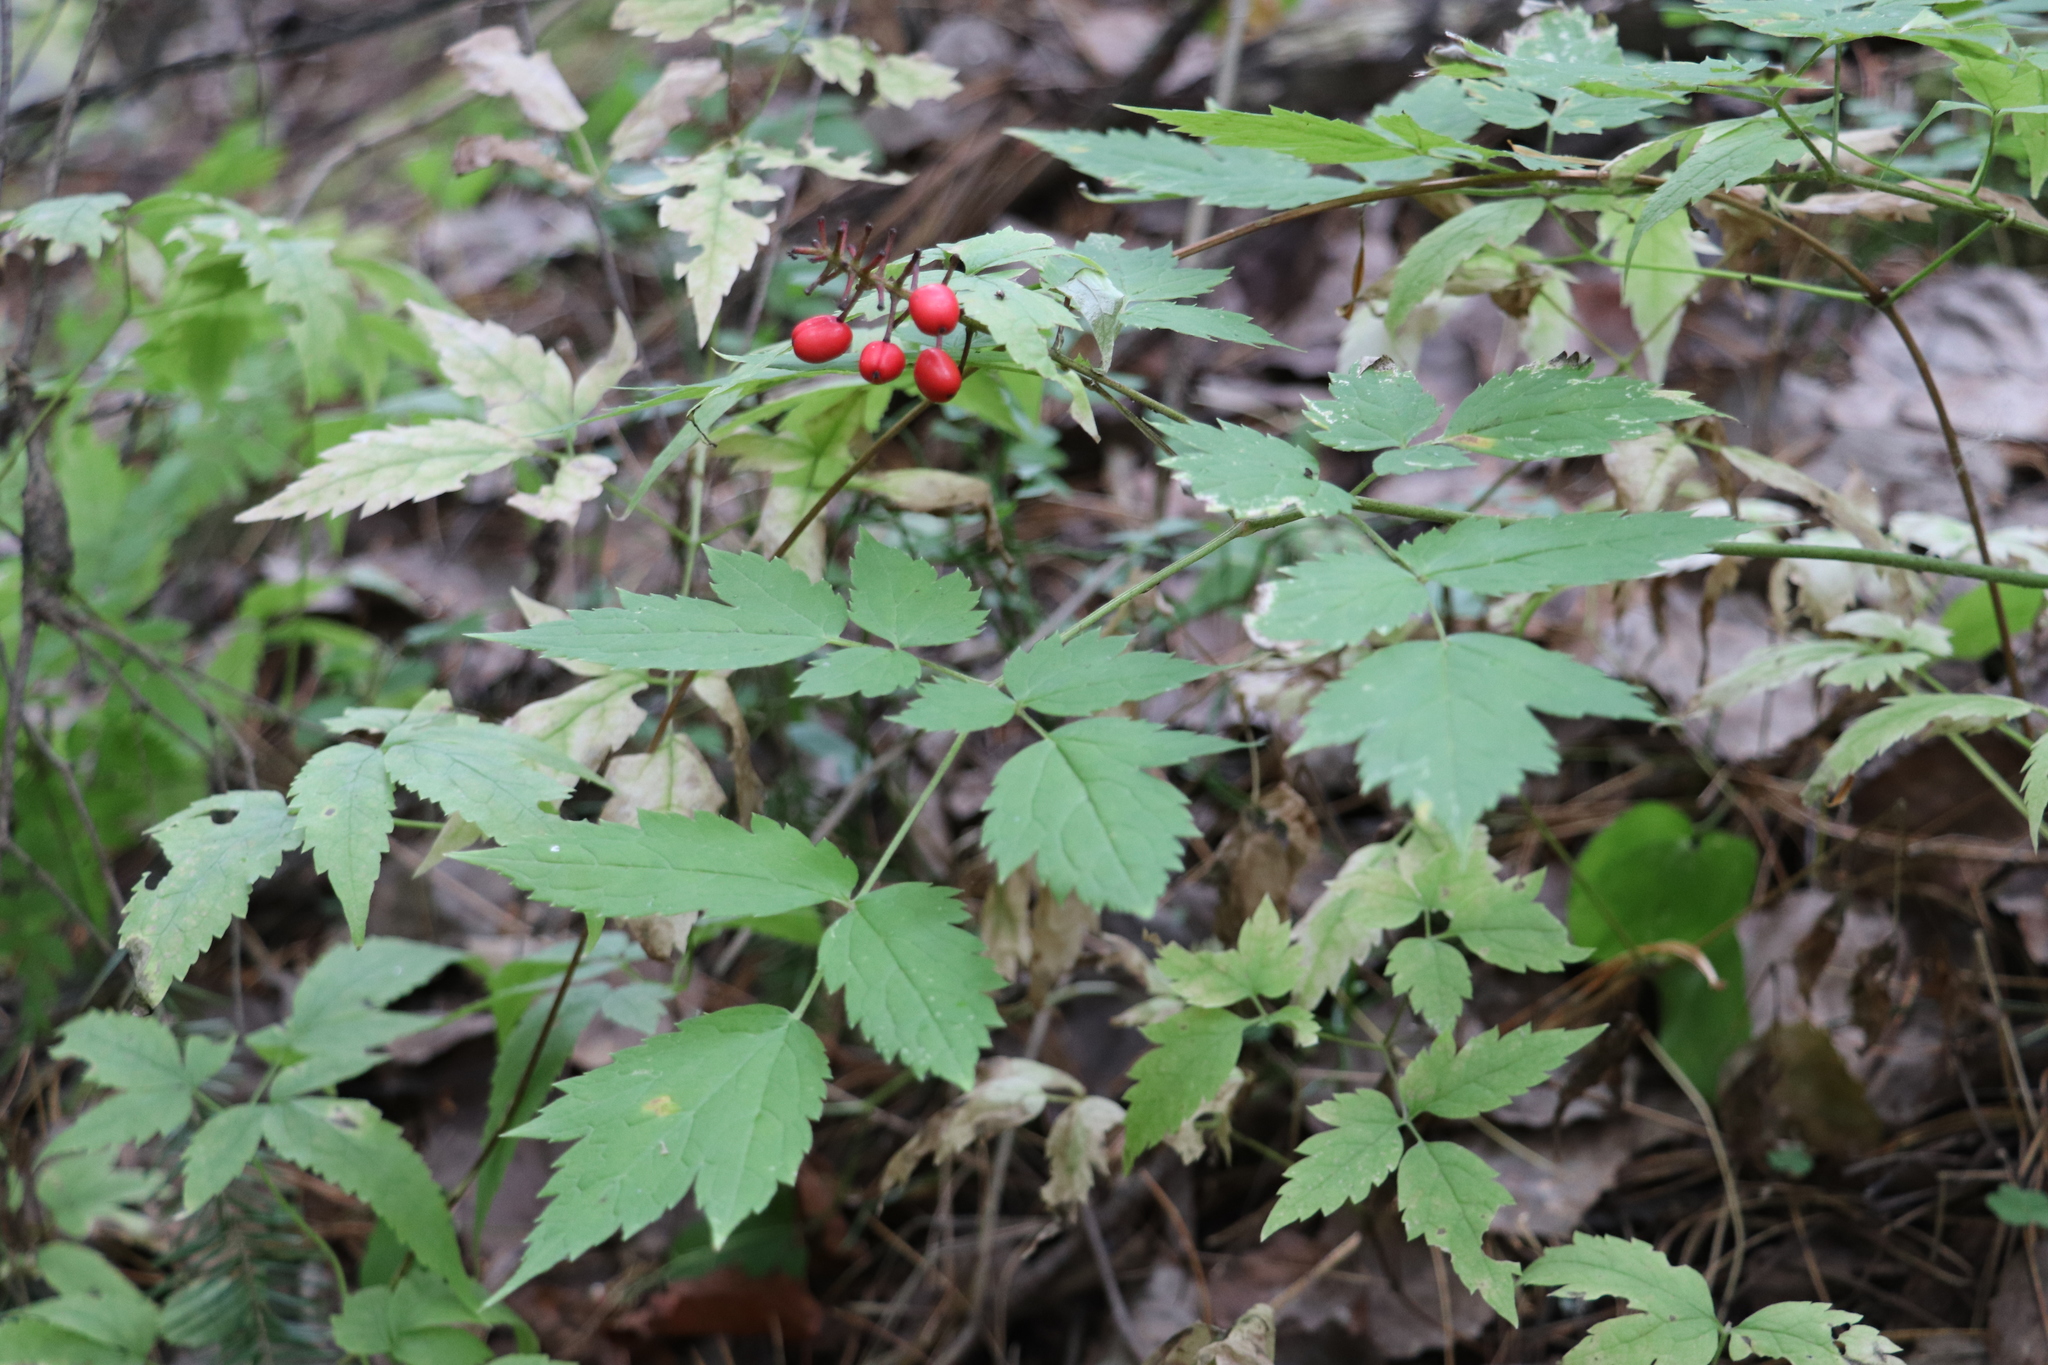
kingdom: Plantae
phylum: Tracheophyta
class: Magnoliopsida
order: Ranunculales
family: Ranunculaceae
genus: Actaea
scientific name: Actaea spicata
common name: Baneberry
